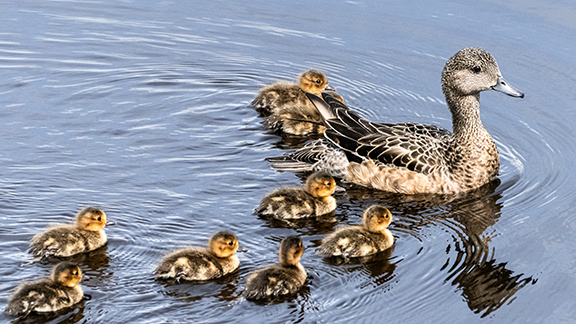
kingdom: Animalia
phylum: Chordata
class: Aves
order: Anseriformes
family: Anatidae
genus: Mareca
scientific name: Mareca americana
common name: American wigeon
